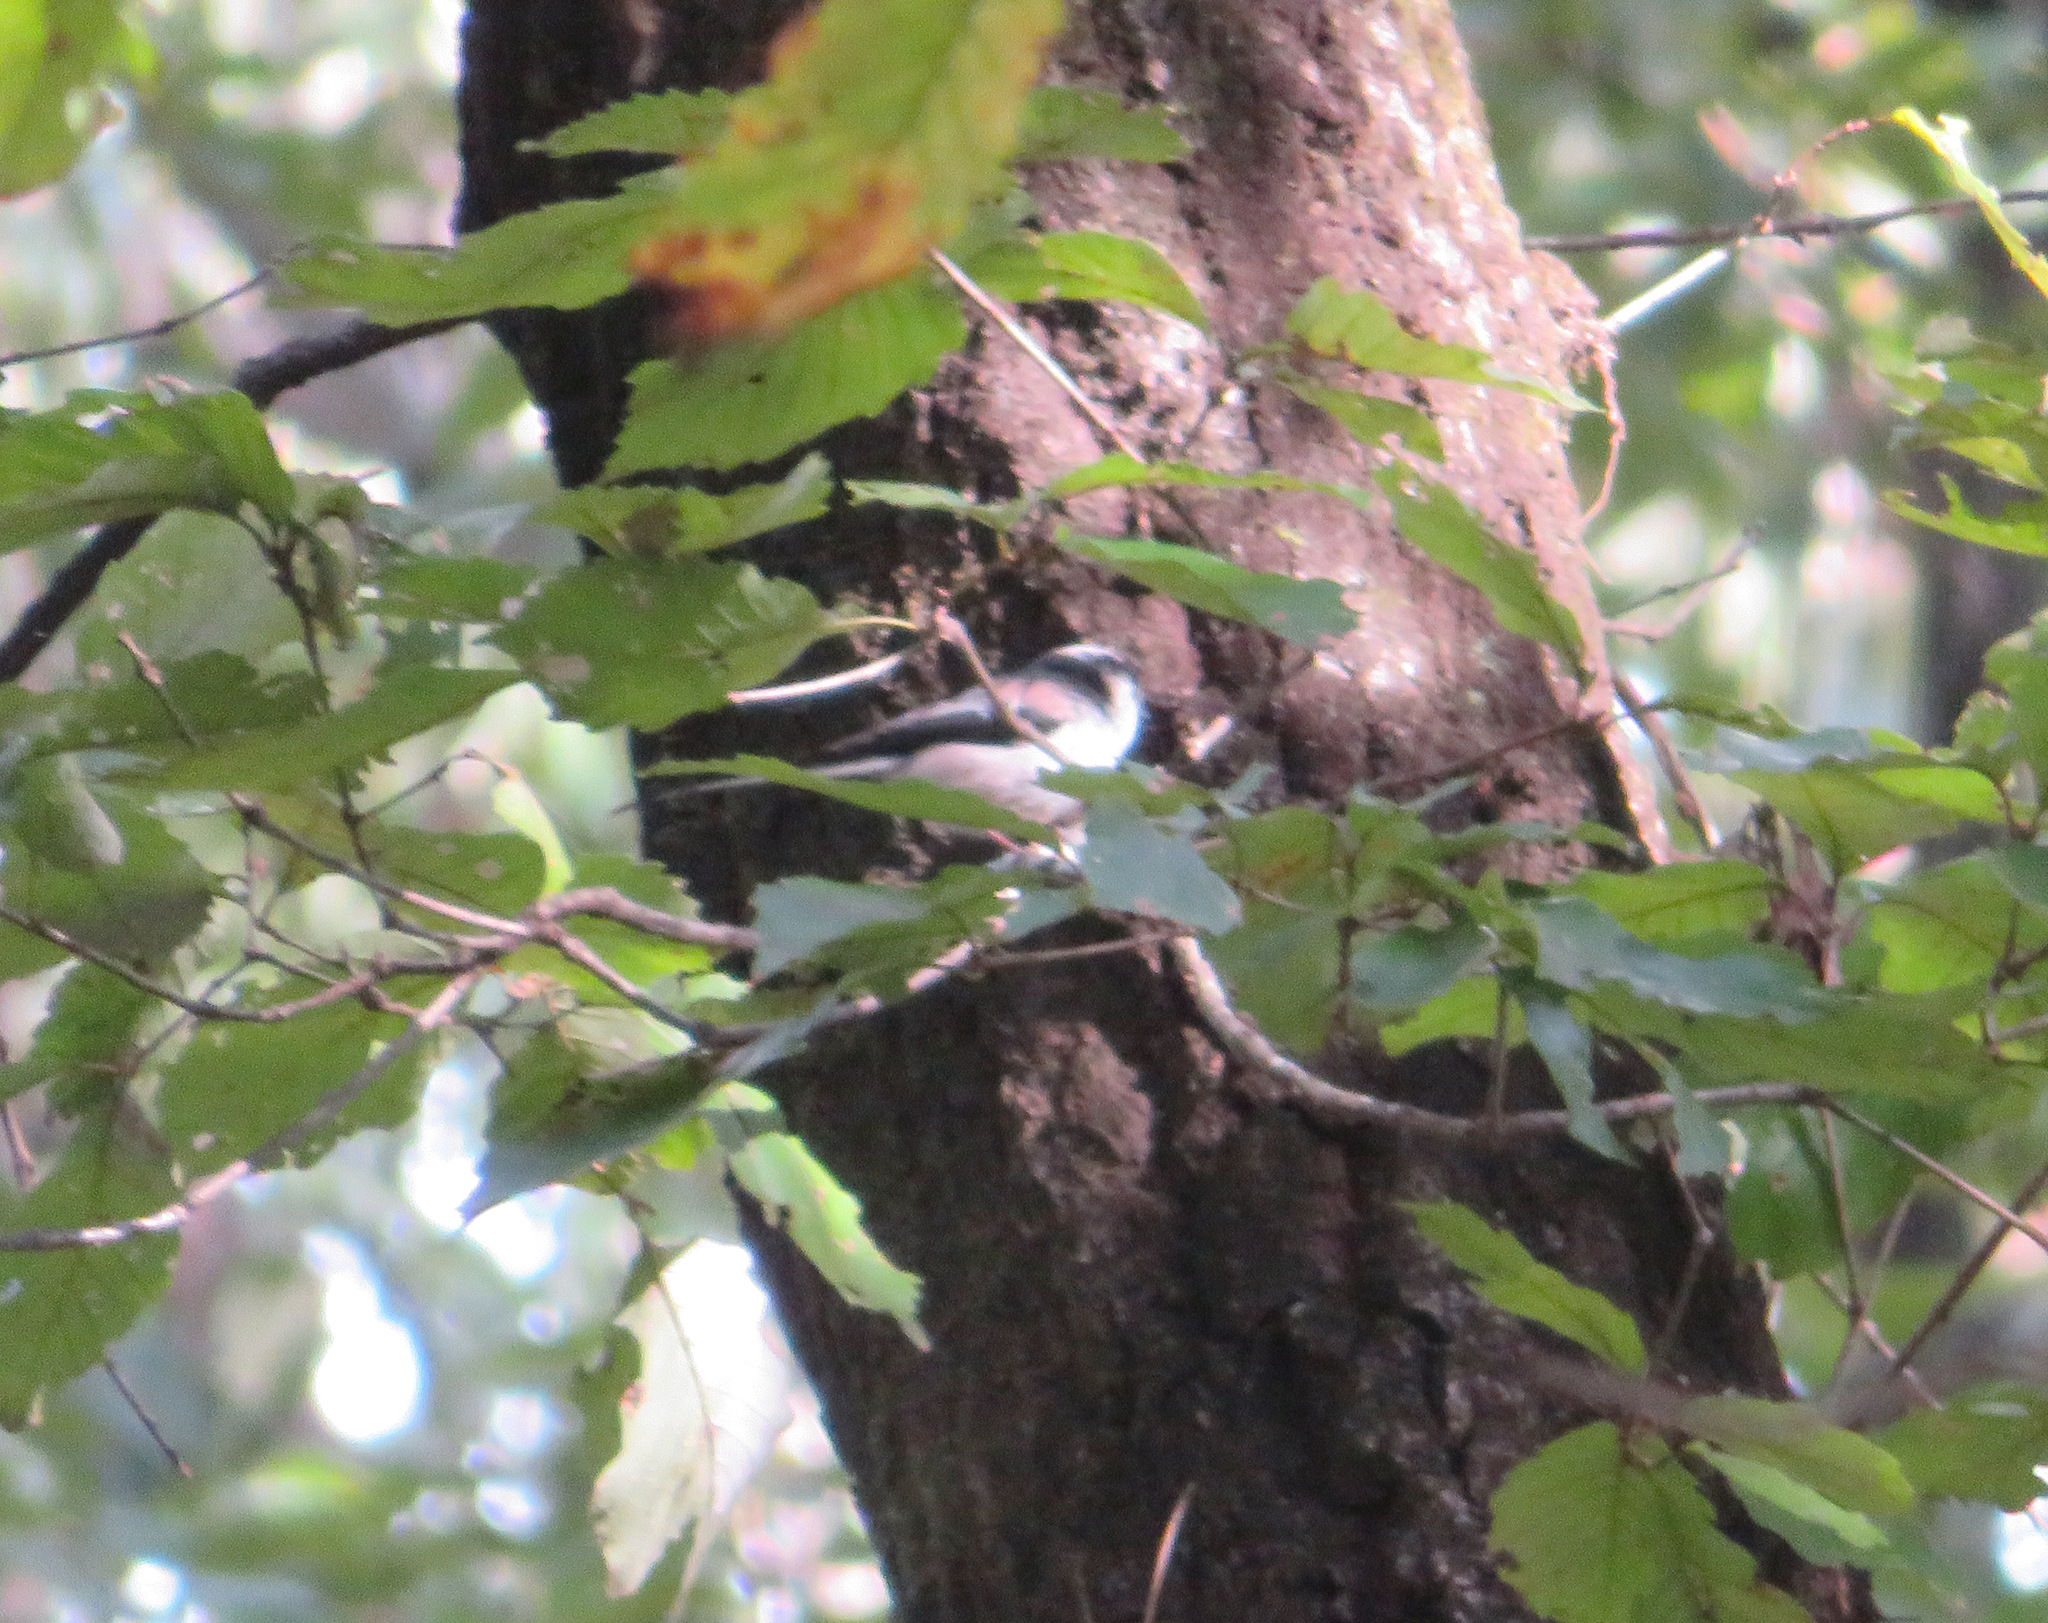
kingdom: Animalia
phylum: Chordata
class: Aves
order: Passeriformes
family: Aegithalidae
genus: Aegithalos
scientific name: Aegithalos caudatus
